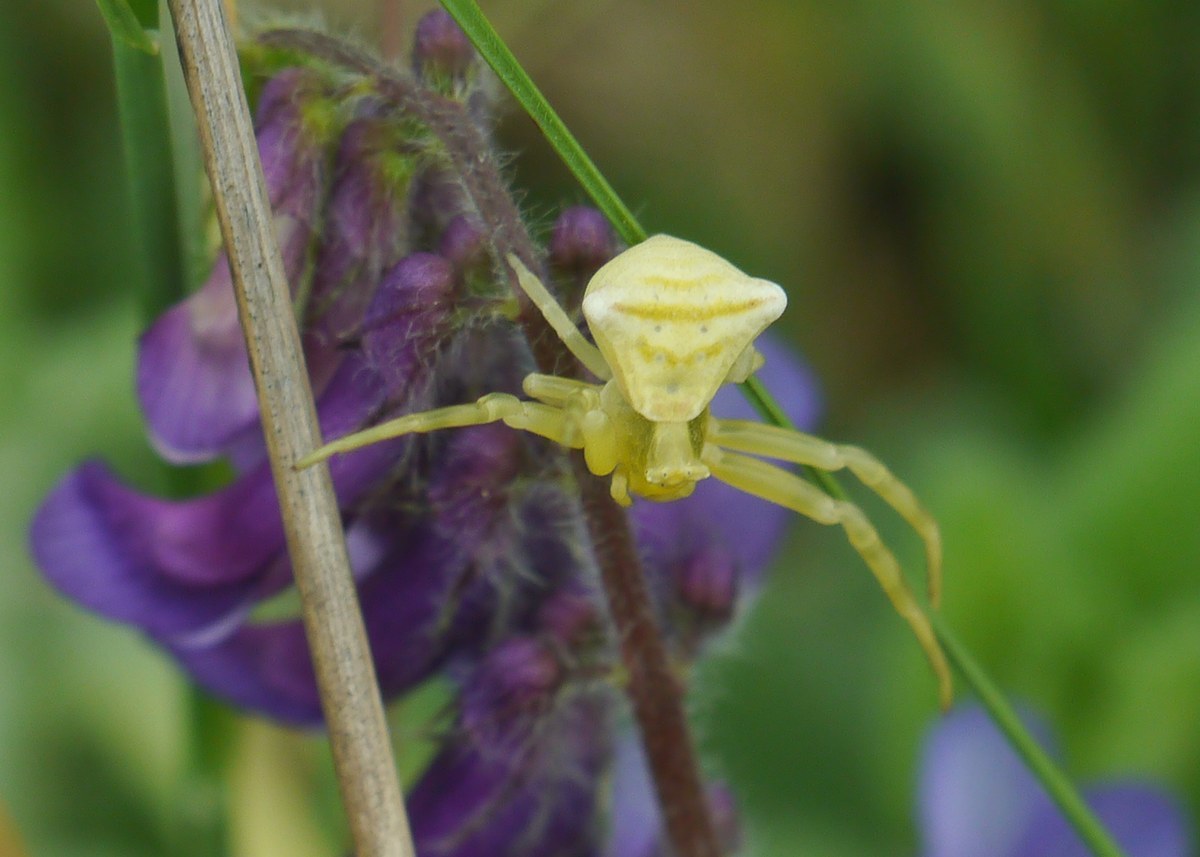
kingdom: Animalia
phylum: Arthropoda
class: Arachnida
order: Araneae
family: Thomisidae
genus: Thomisus
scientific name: Thomisus onustus
